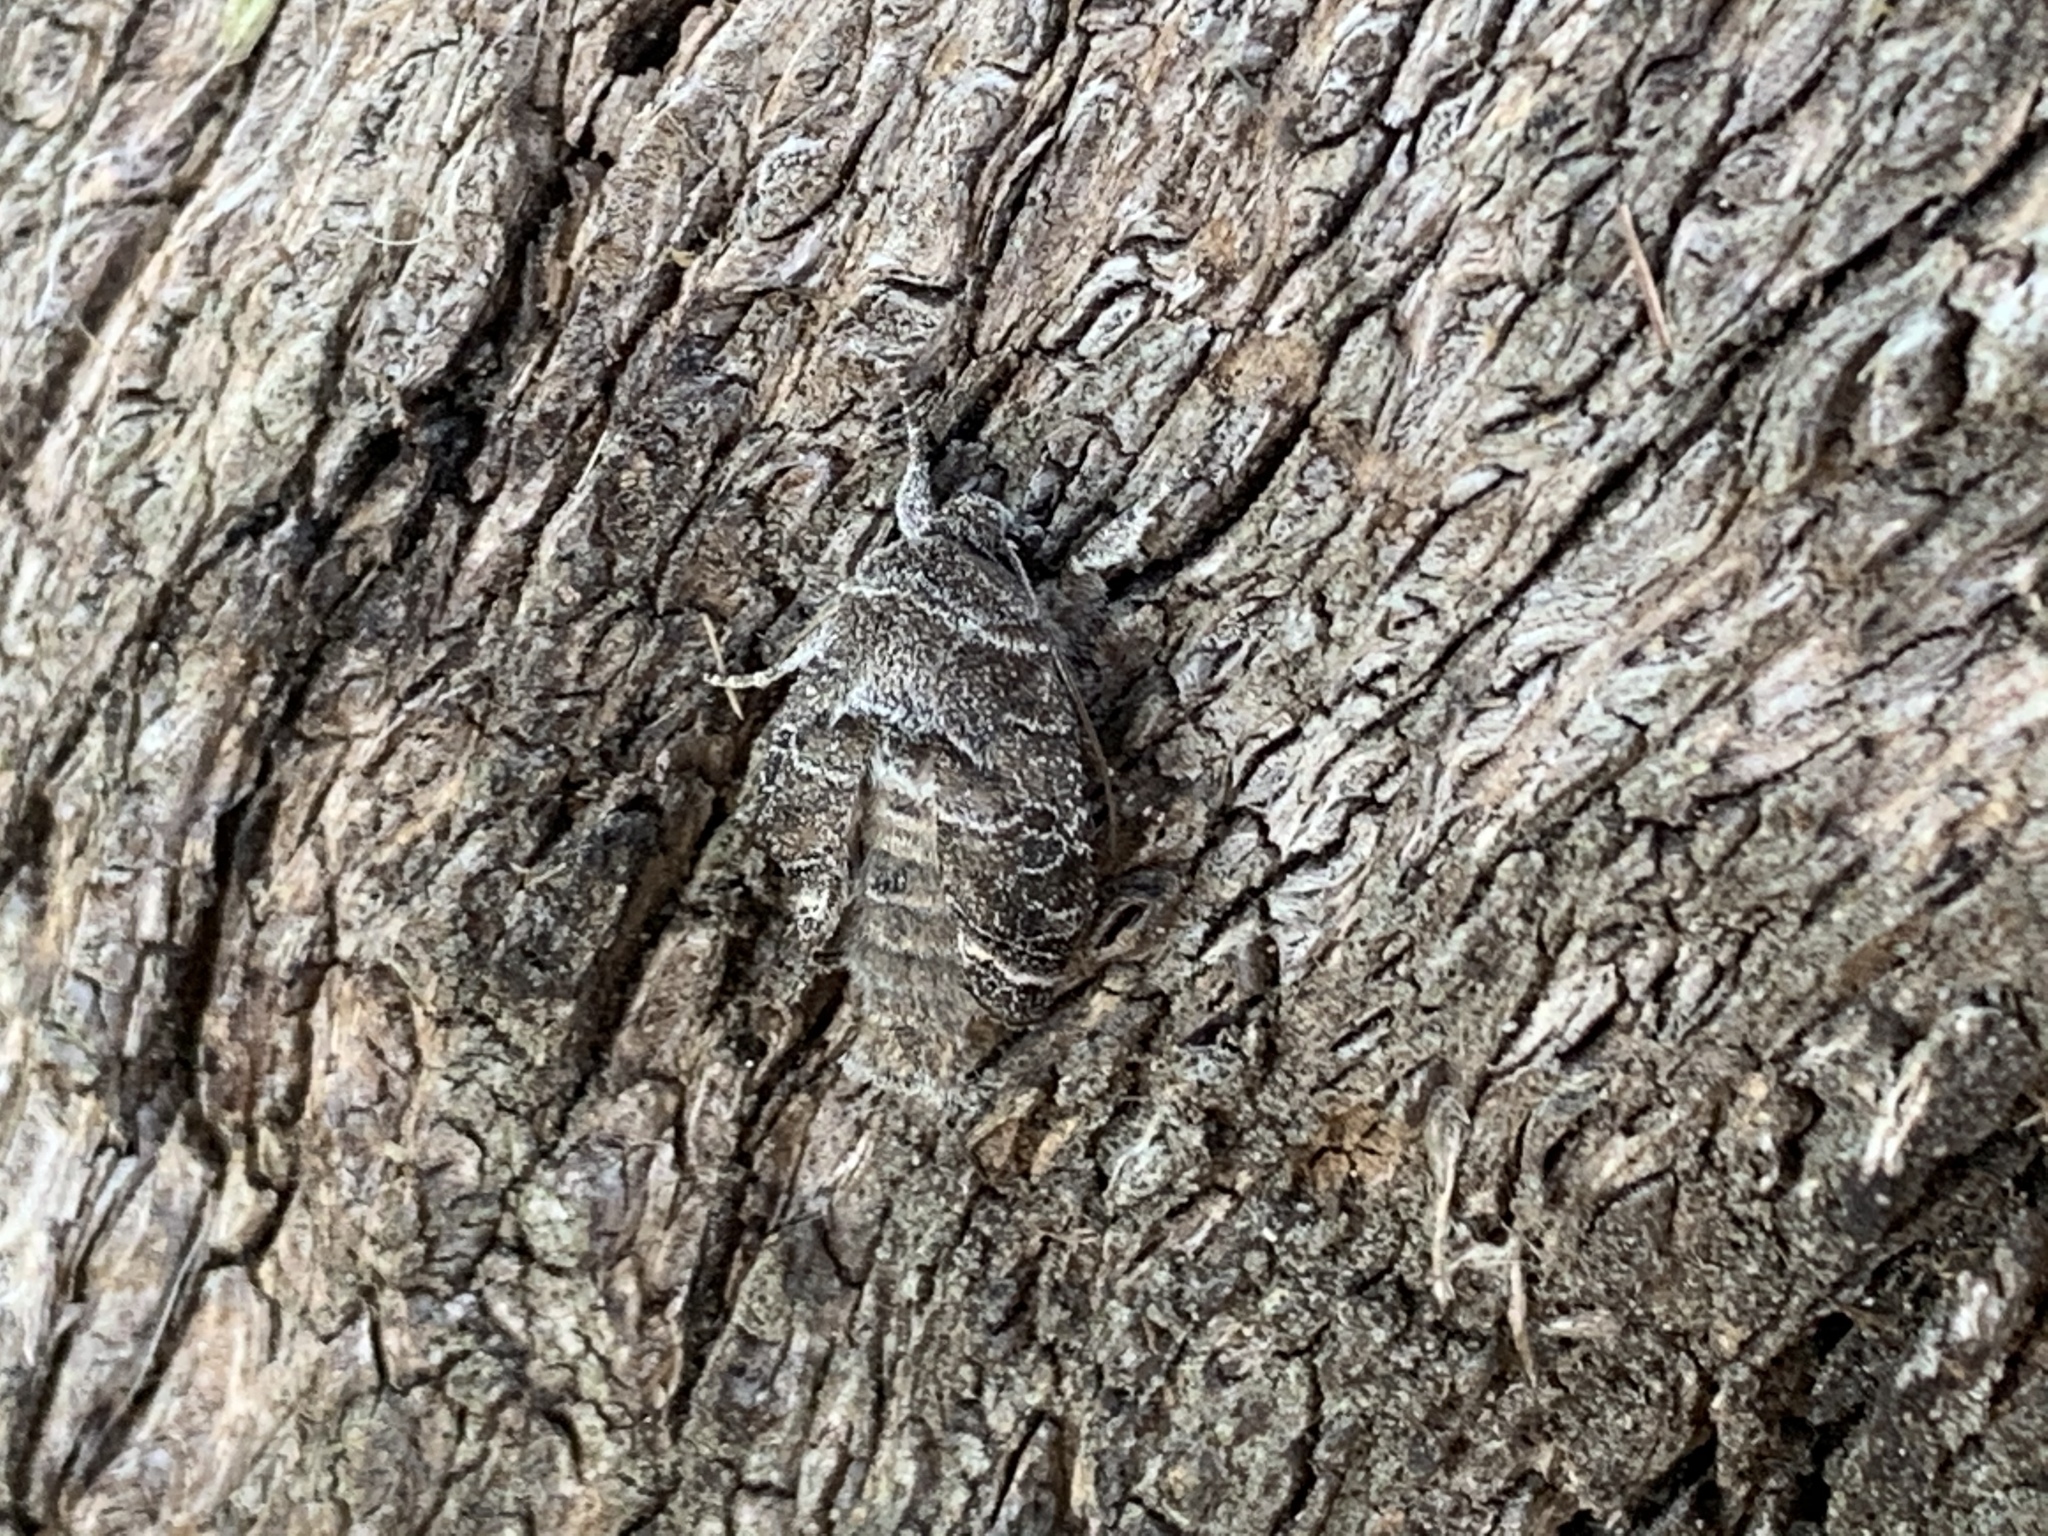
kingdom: Animalia
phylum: Arthropoda
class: Insecta
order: Lepidoptera
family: Noctuidae
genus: Lacinipolia
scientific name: Lacinipolia erecta
